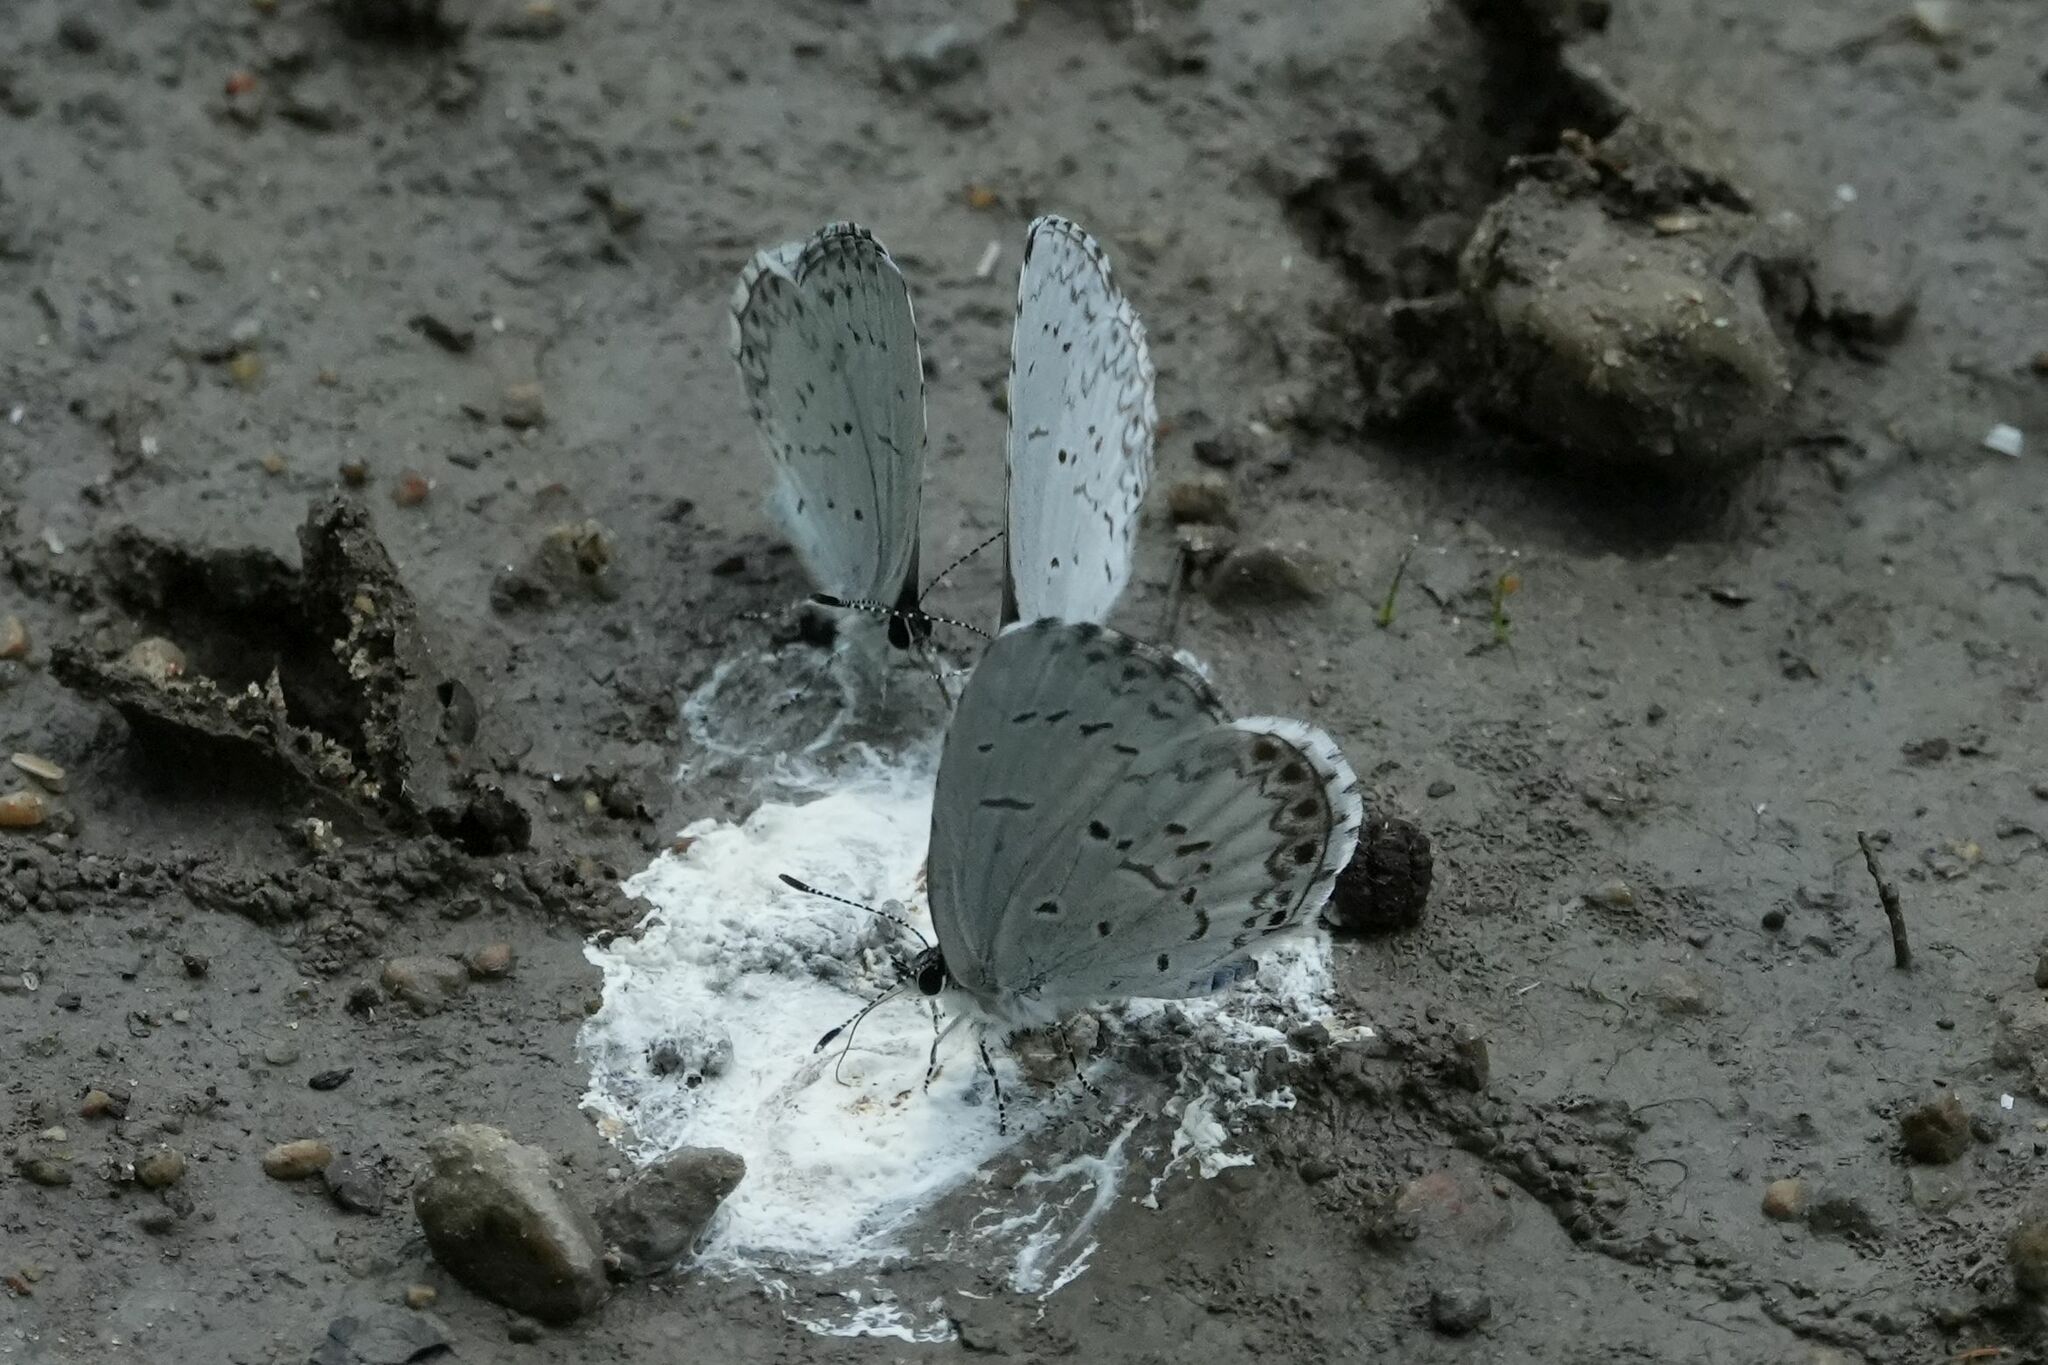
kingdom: Animalia
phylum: Arthropoda
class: Insecta
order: Lepidoptera
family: Lycaenidae
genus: Celastrina
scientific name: Celastrina lucia
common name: Lucia azure
